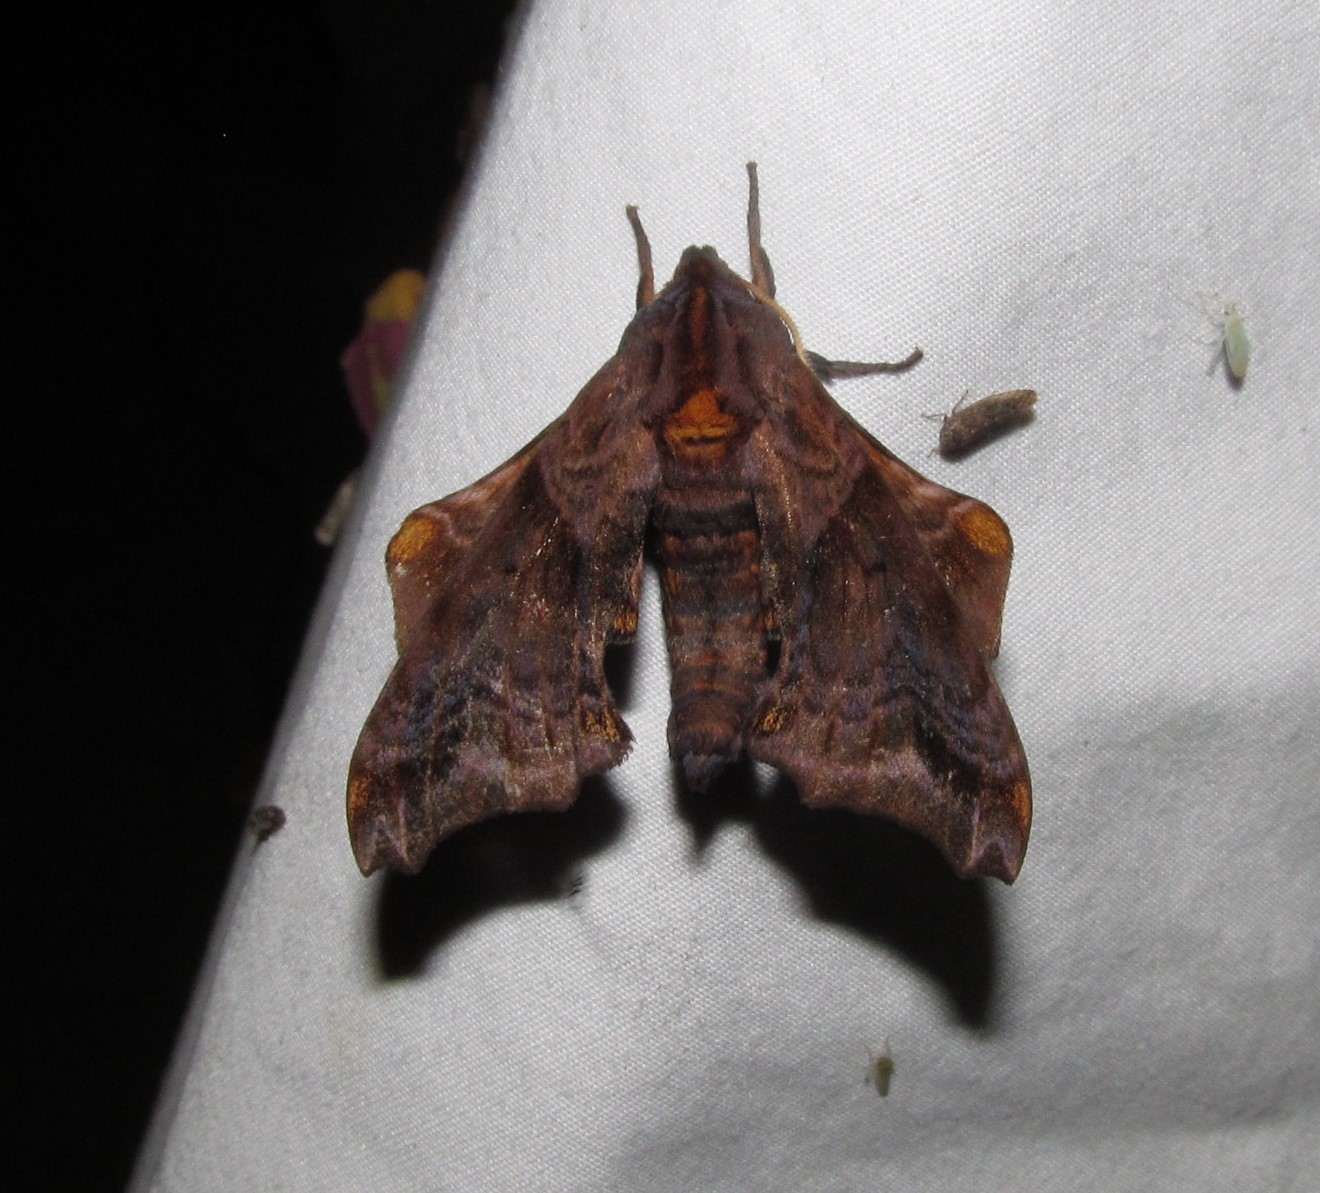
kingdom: Animalia
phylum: Arthropoda
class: Insecta
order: Lepidoptera
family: Sphingidae
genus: Paonias
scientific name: Paonias myops
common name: Small-eyed sphinx
